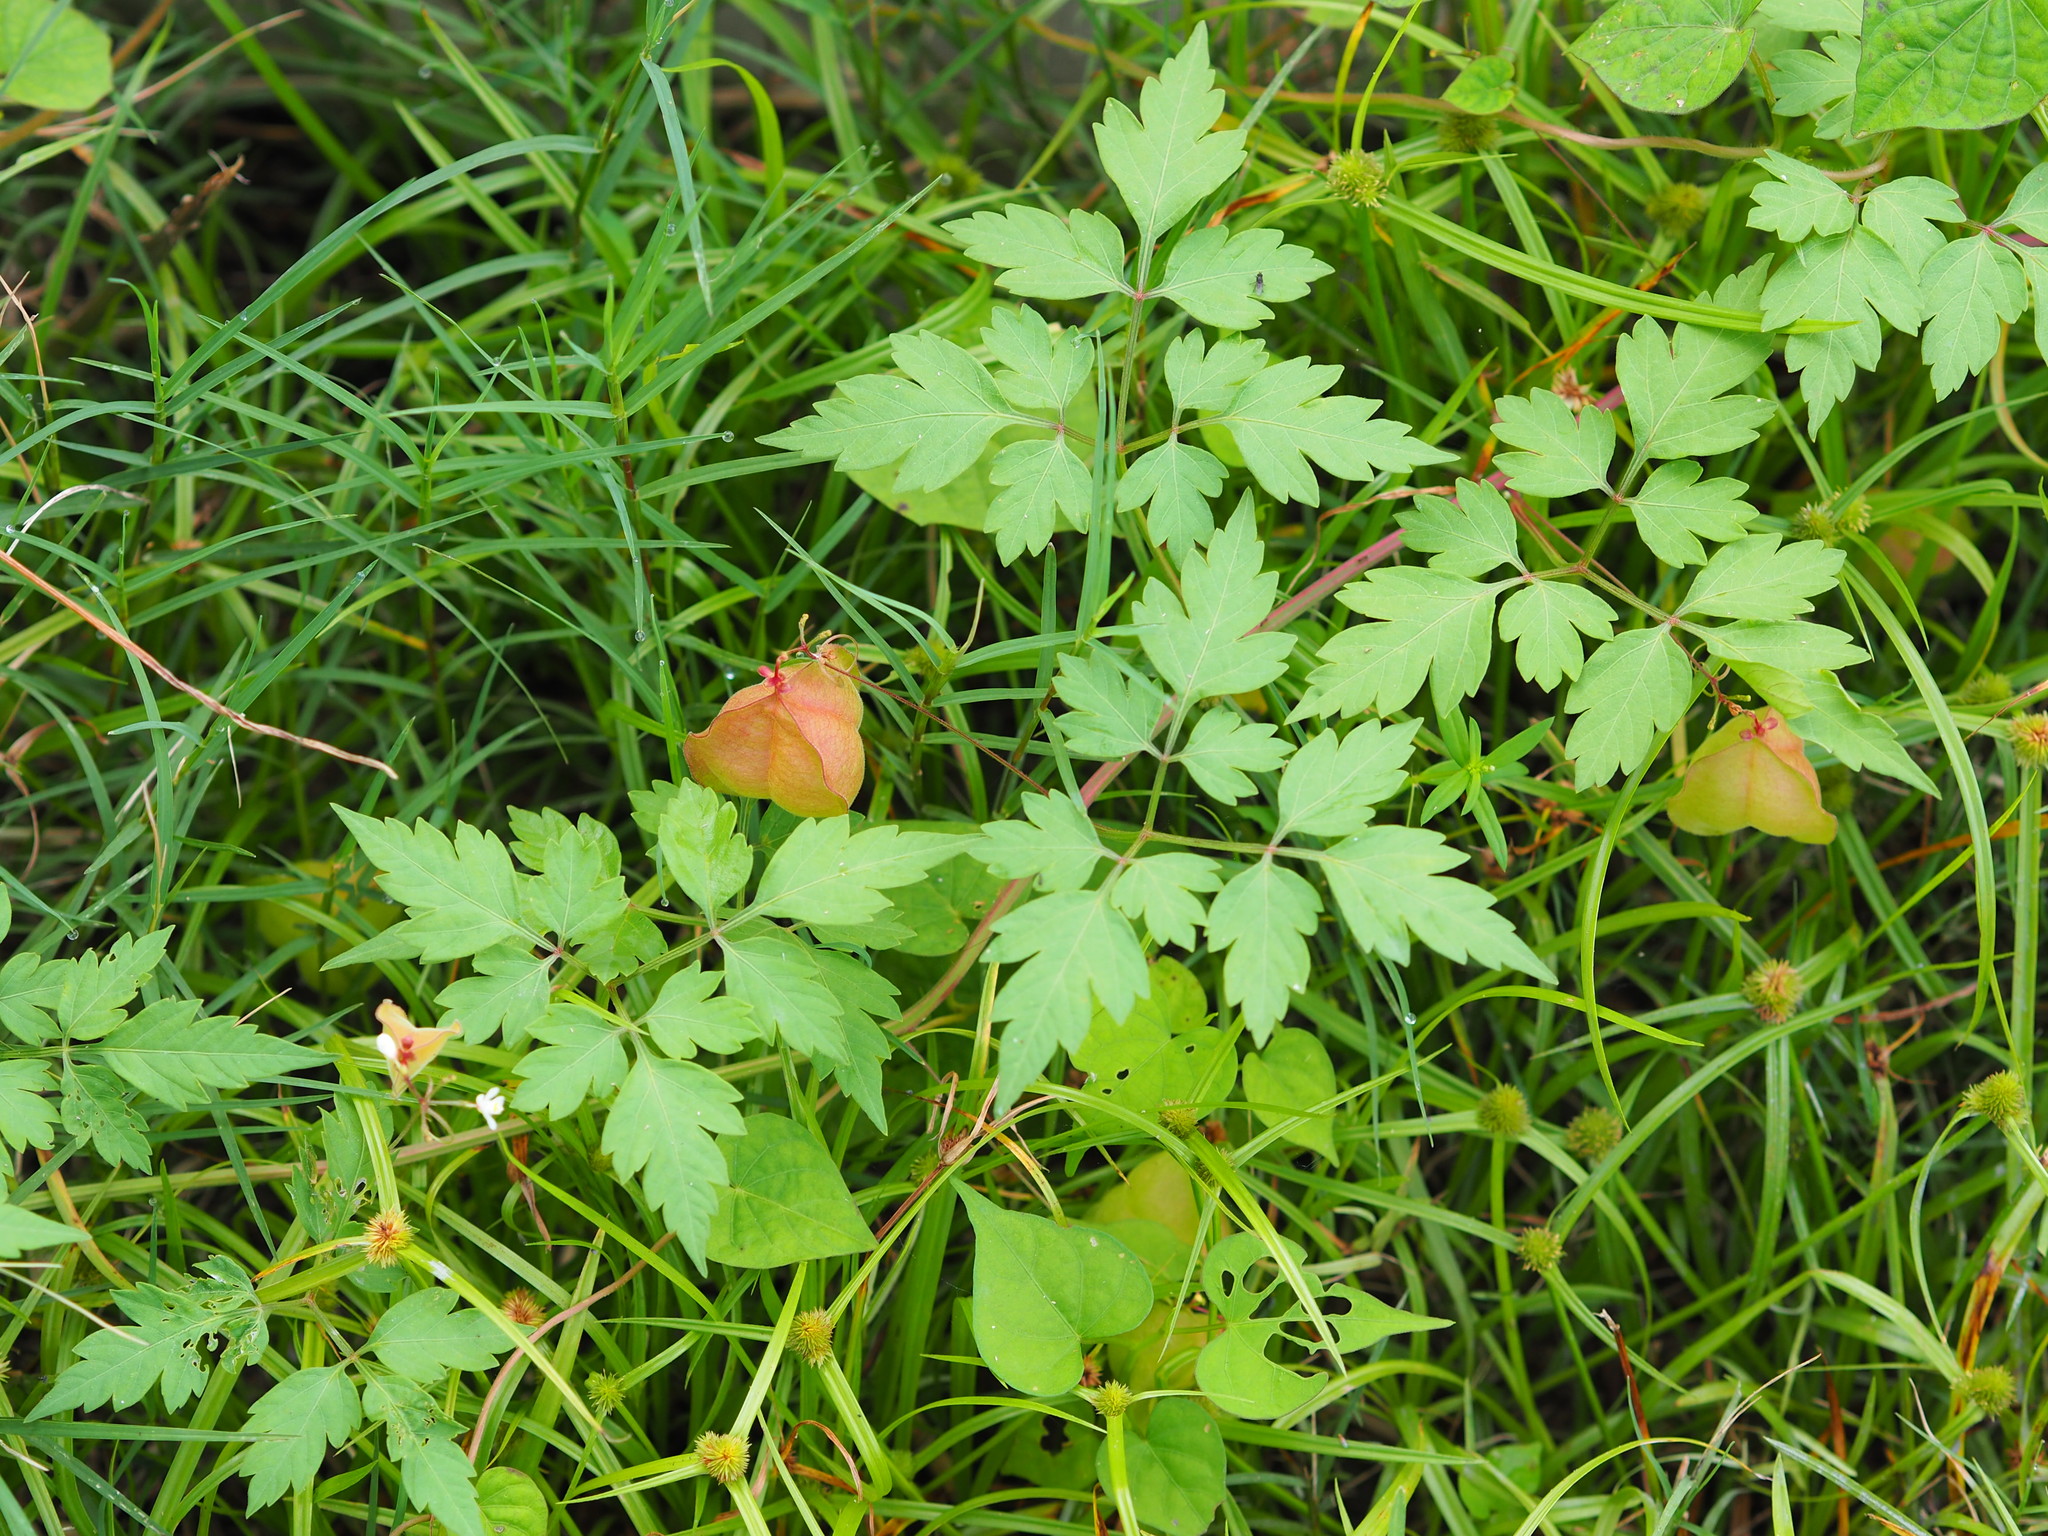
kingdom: Plantae
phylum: Tracheophyta
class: Magnoliopsida
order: Sapindales
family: Sapindaceae
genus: Cardiospermum
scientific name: Cardiospermum halicacabum
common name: Balloon vine
